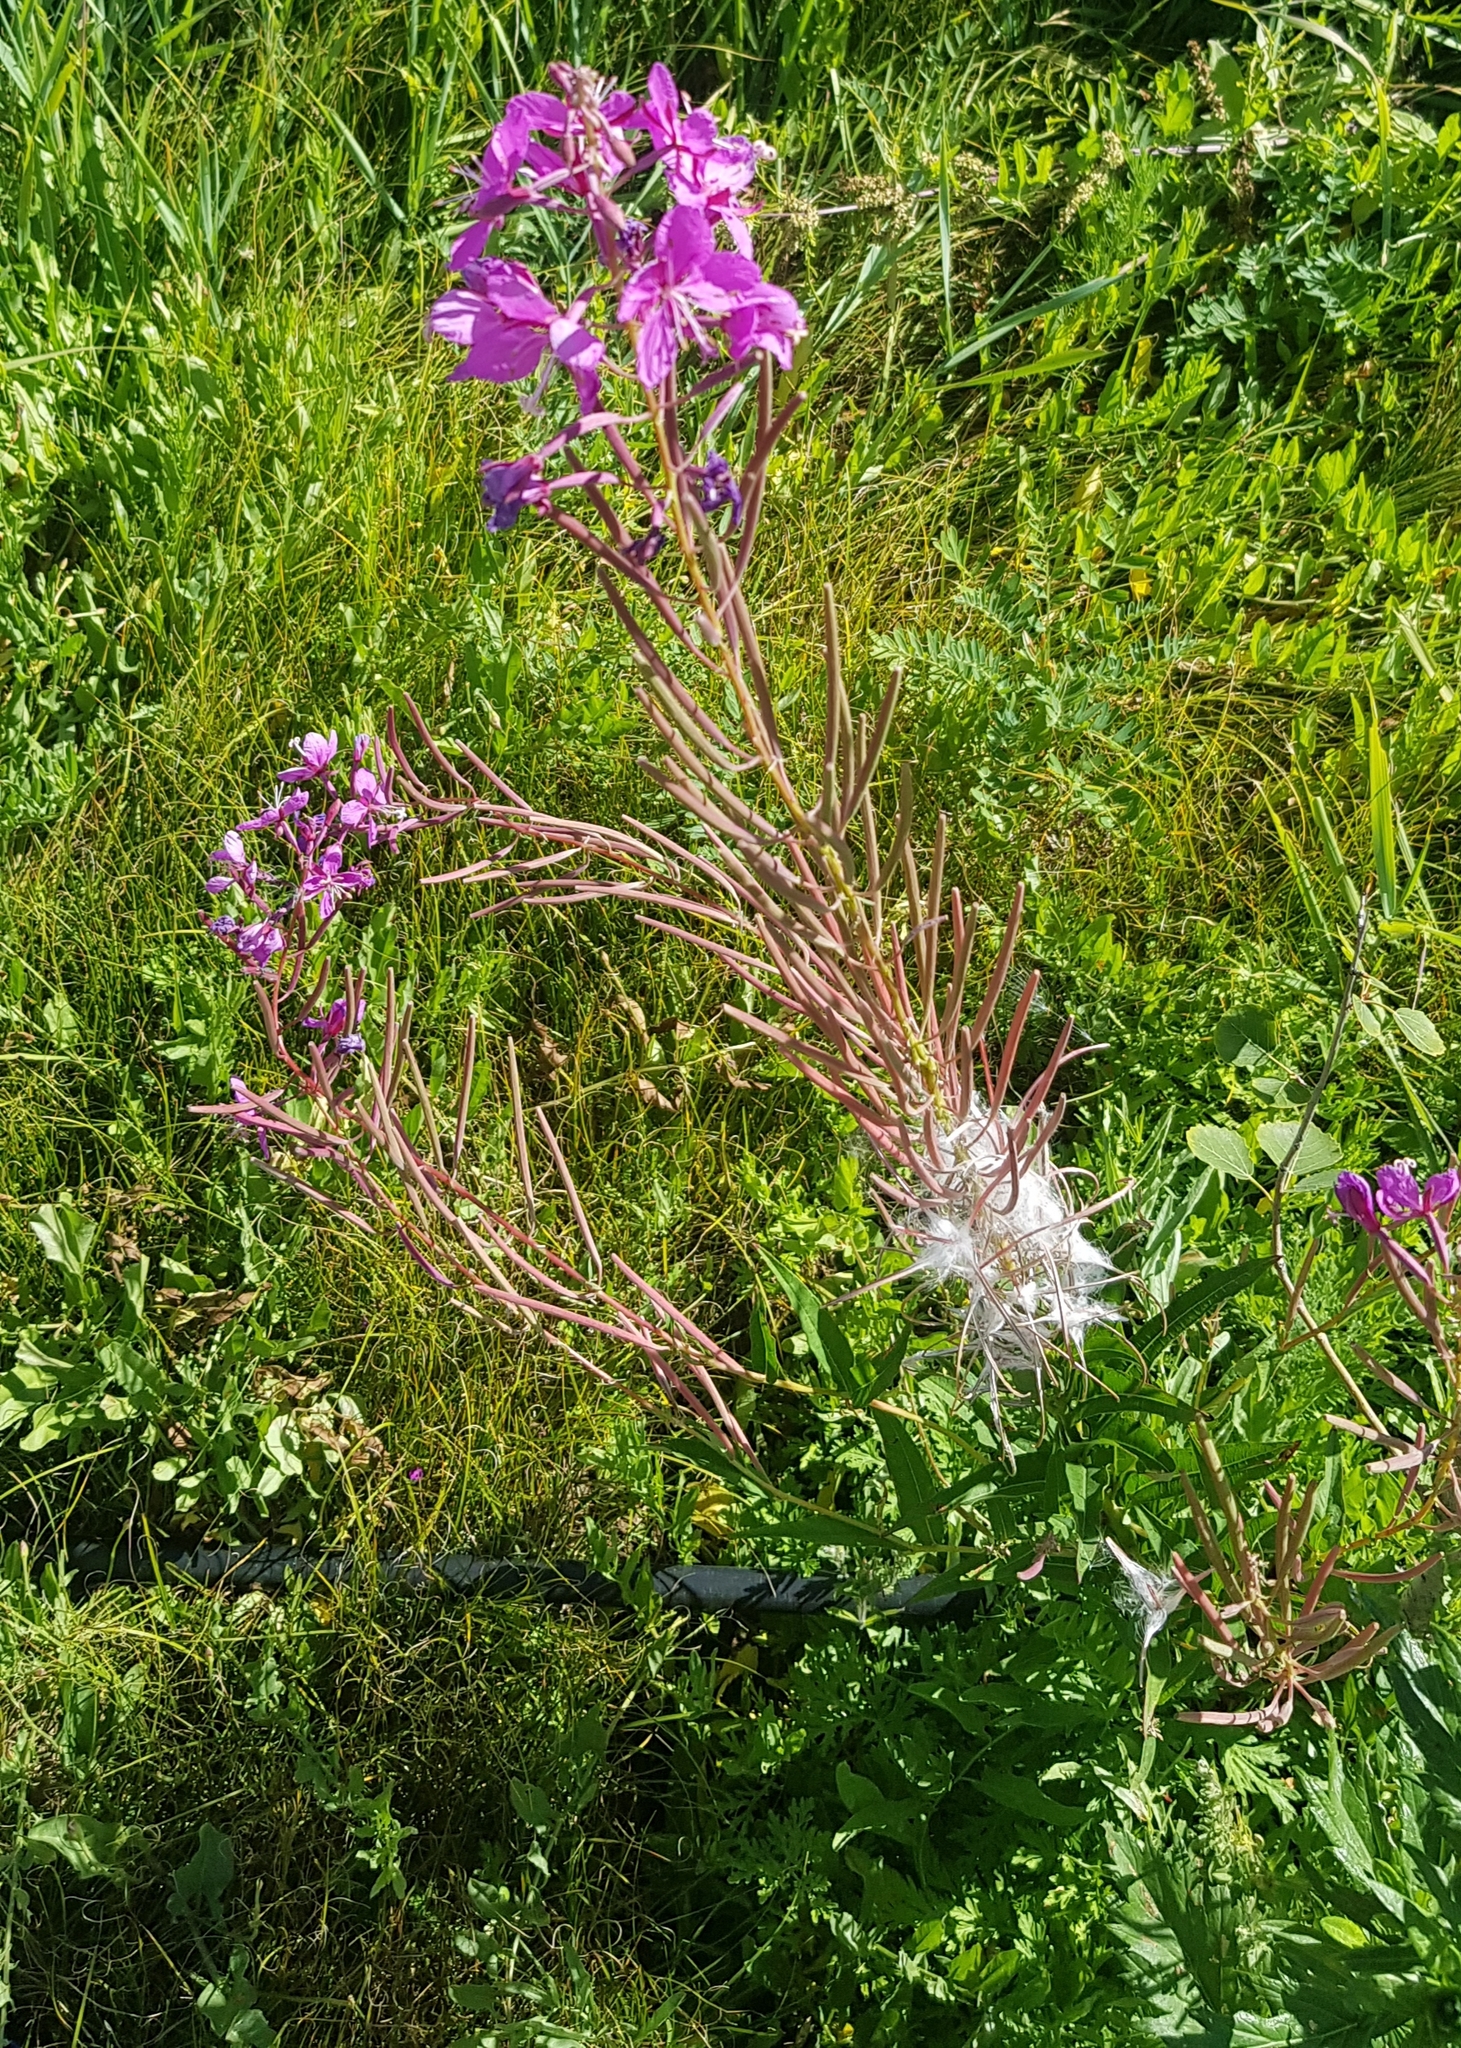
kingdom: Plantae
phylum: Tracheophyta
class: Magnoliopsida
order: Myrtales
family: Onagraceae
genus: Chamaenerion
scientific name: Chamaenerion angustifolium
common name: Fireweed
